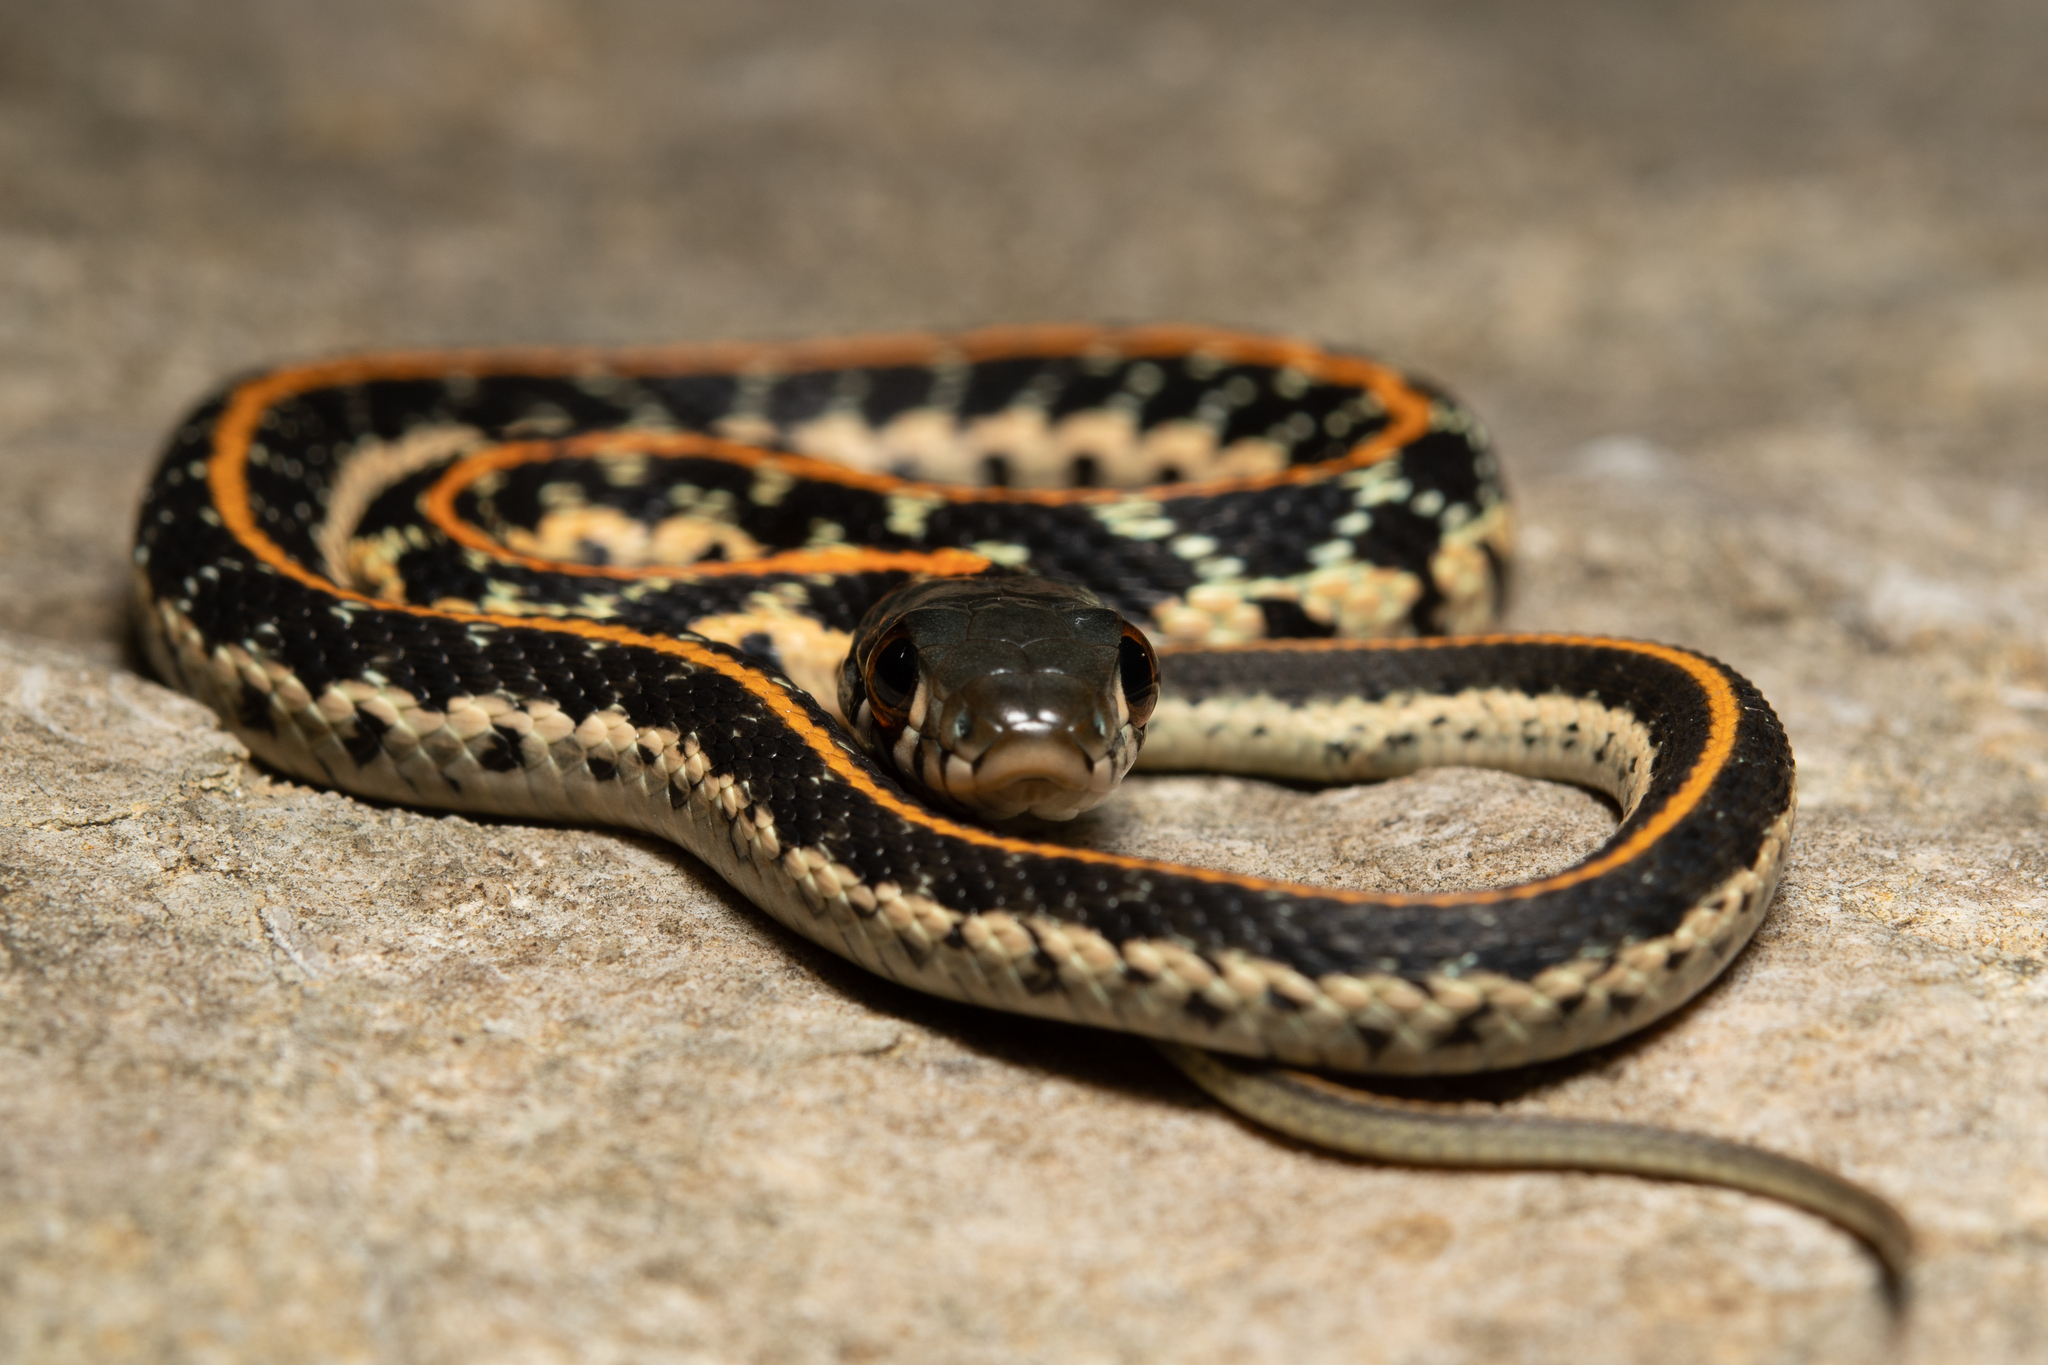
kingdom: Animalia
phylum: Chordata
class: Squamata
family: Colubridae
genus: Thamnophis
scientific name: Thamnophis cyrtopsis
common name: Black-necked gartersnake
